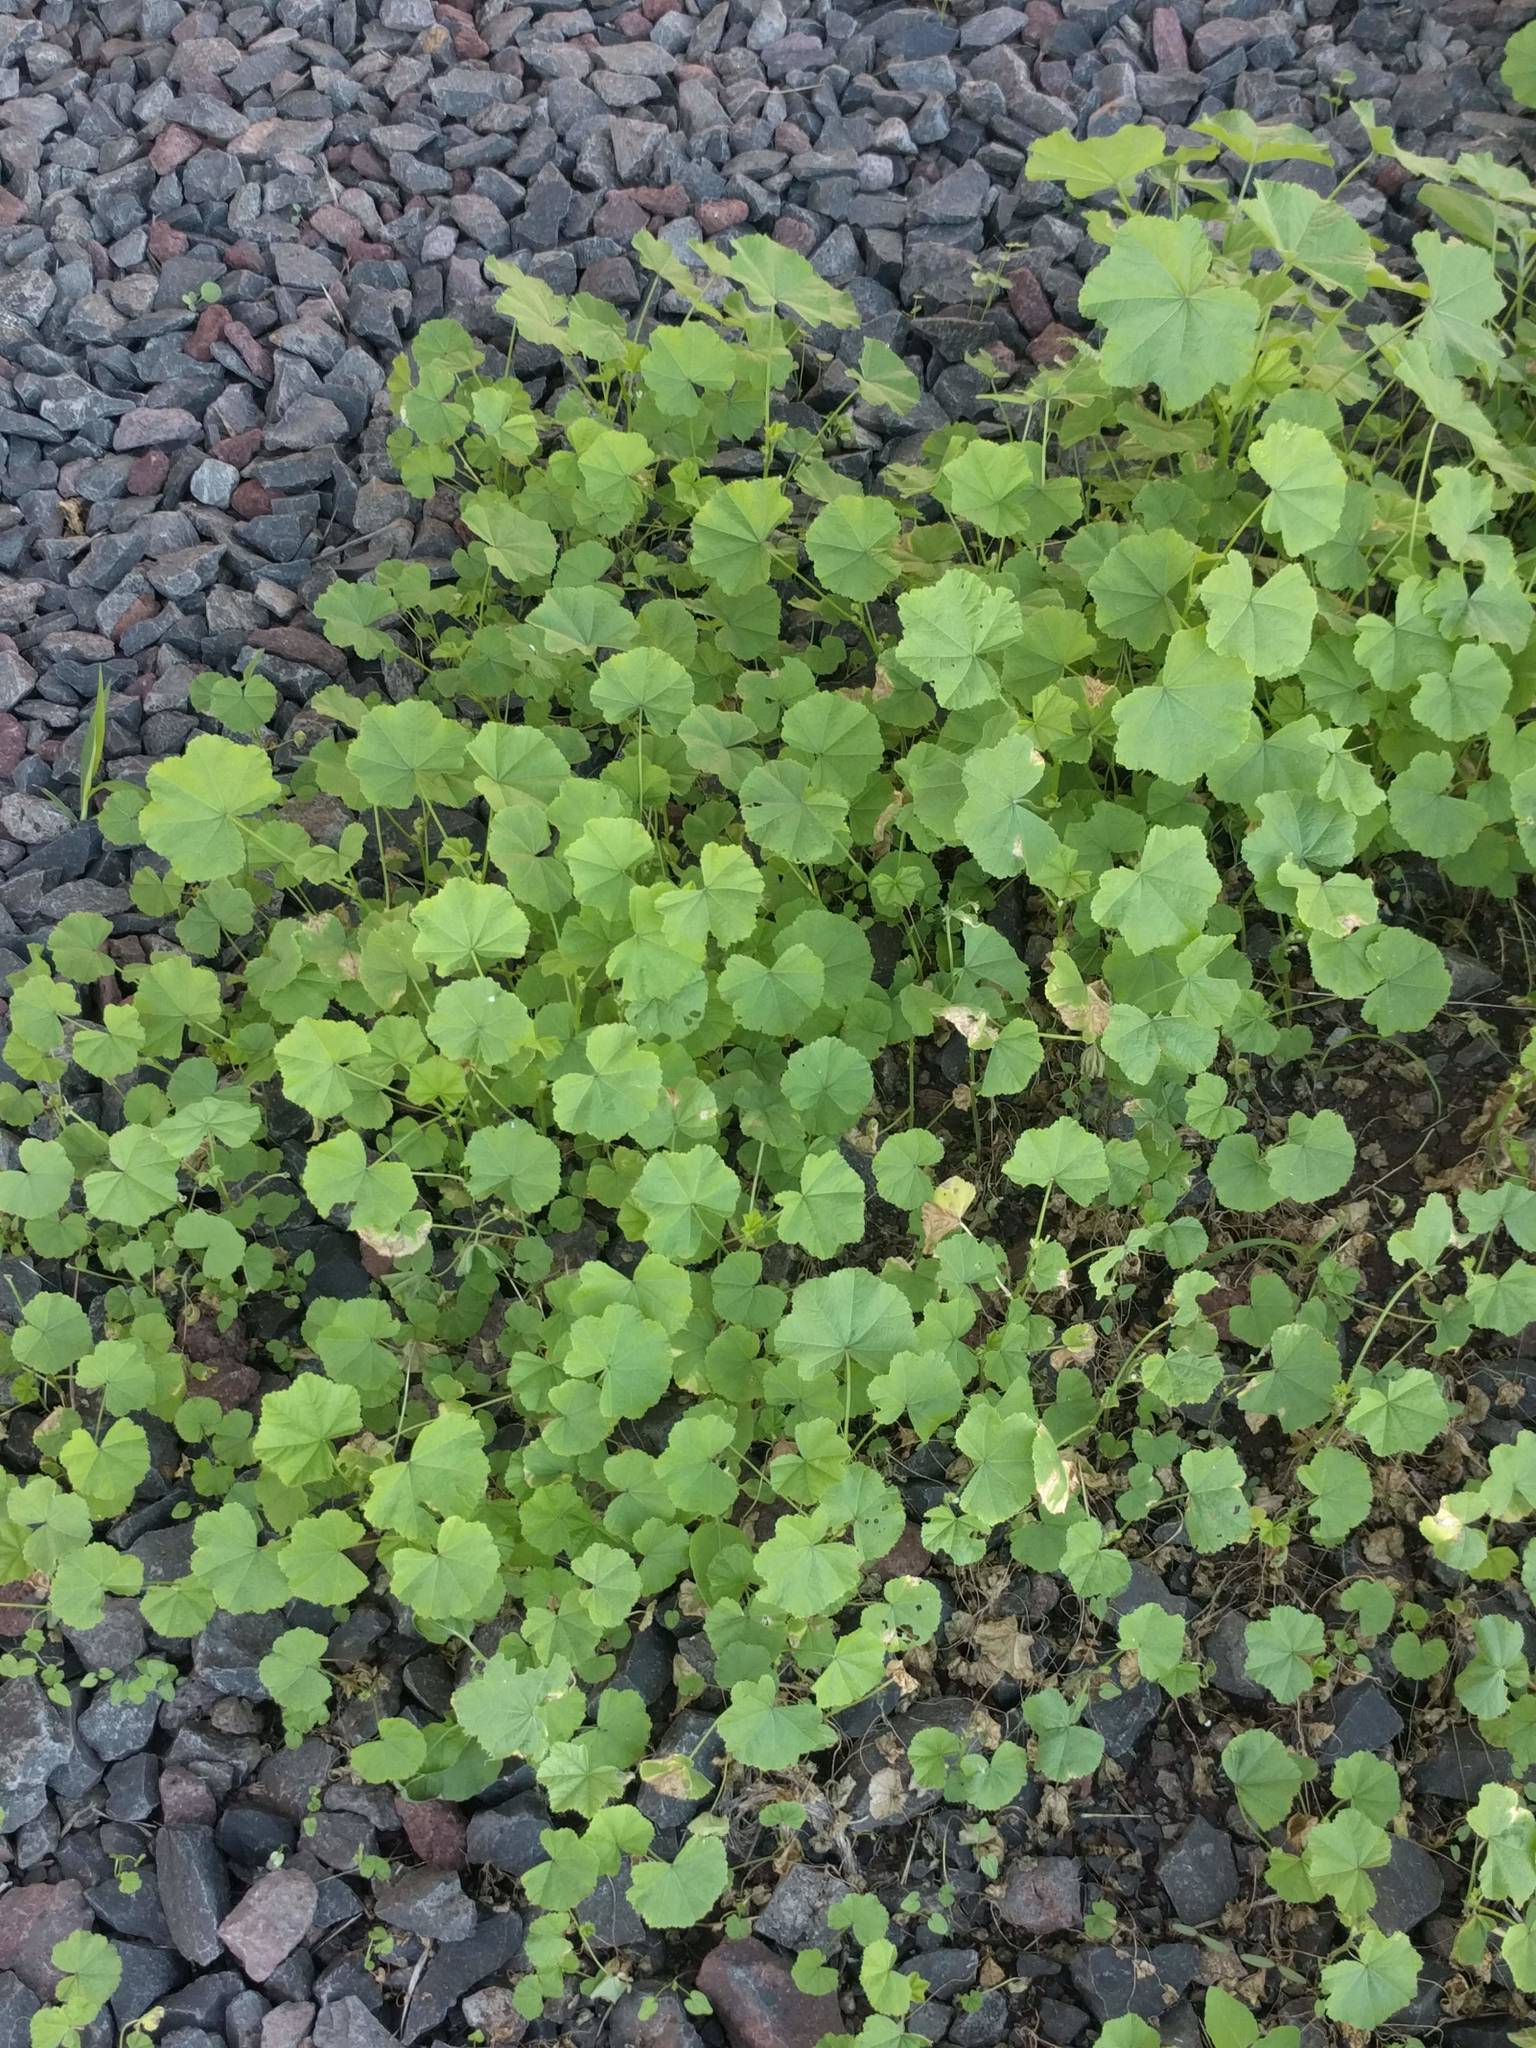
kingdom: Plantae
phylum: Tracheophyta
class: Magnoliopsida
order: Malvales
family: Malvaceae
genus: Malva
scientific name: Malva parviflora
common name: Least mallow
